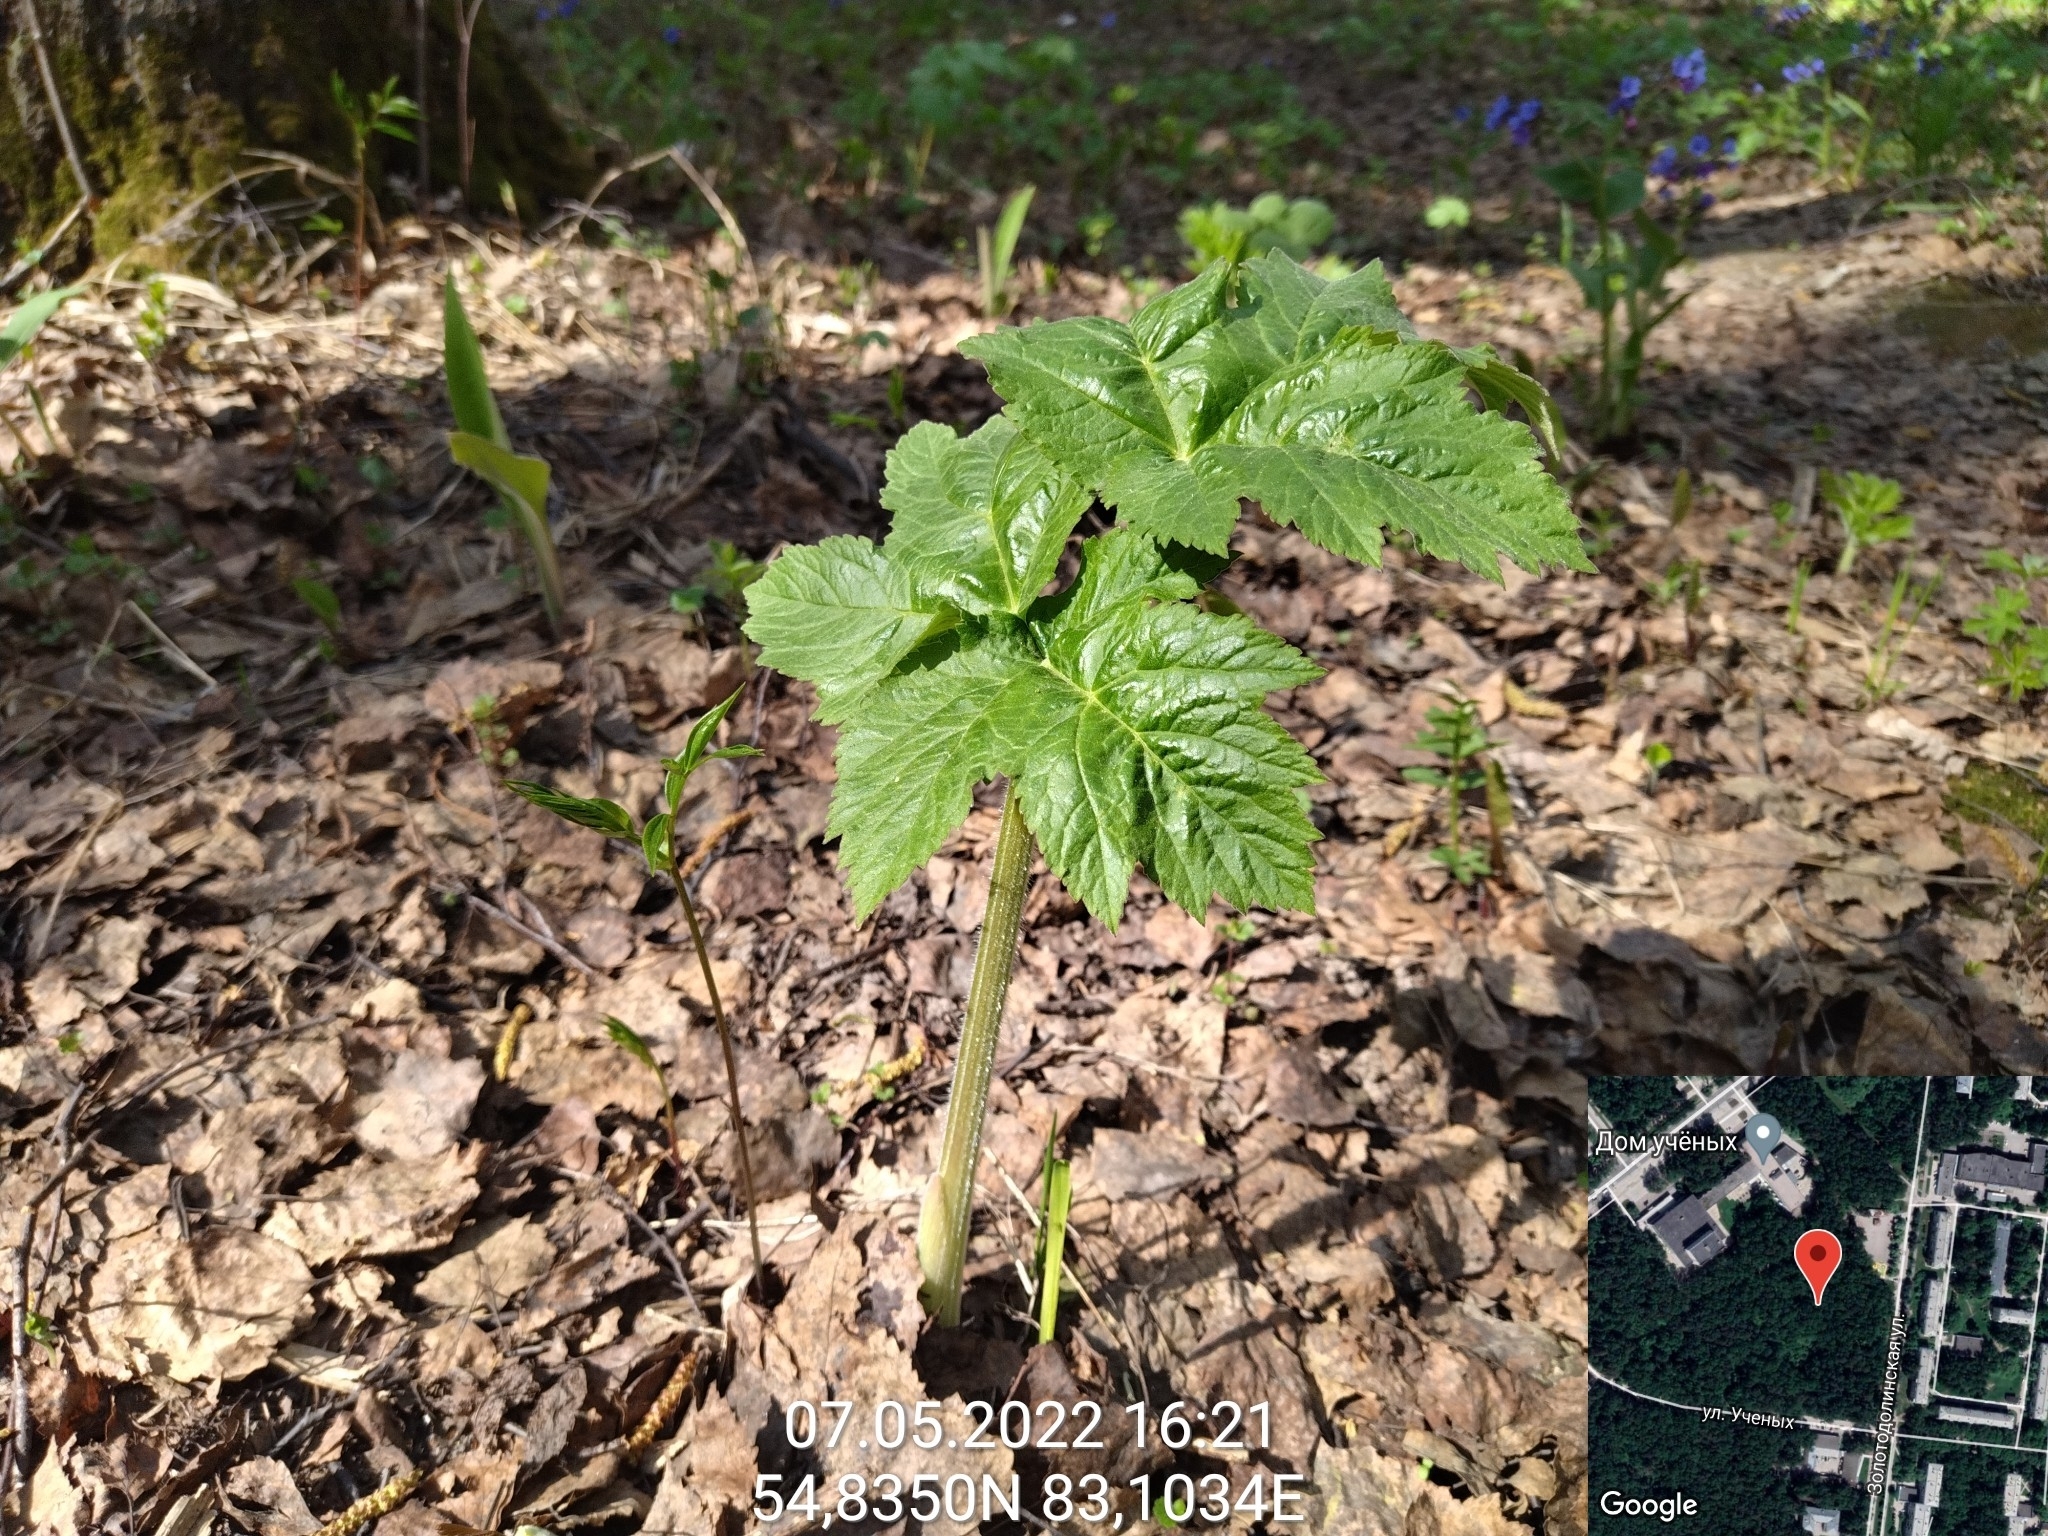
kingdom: Plantae
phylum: Tracheophyta
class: Magnoliopsida
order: Apiales
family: Apiaceae
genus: Heracleum
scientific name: Heracleum dissectum
